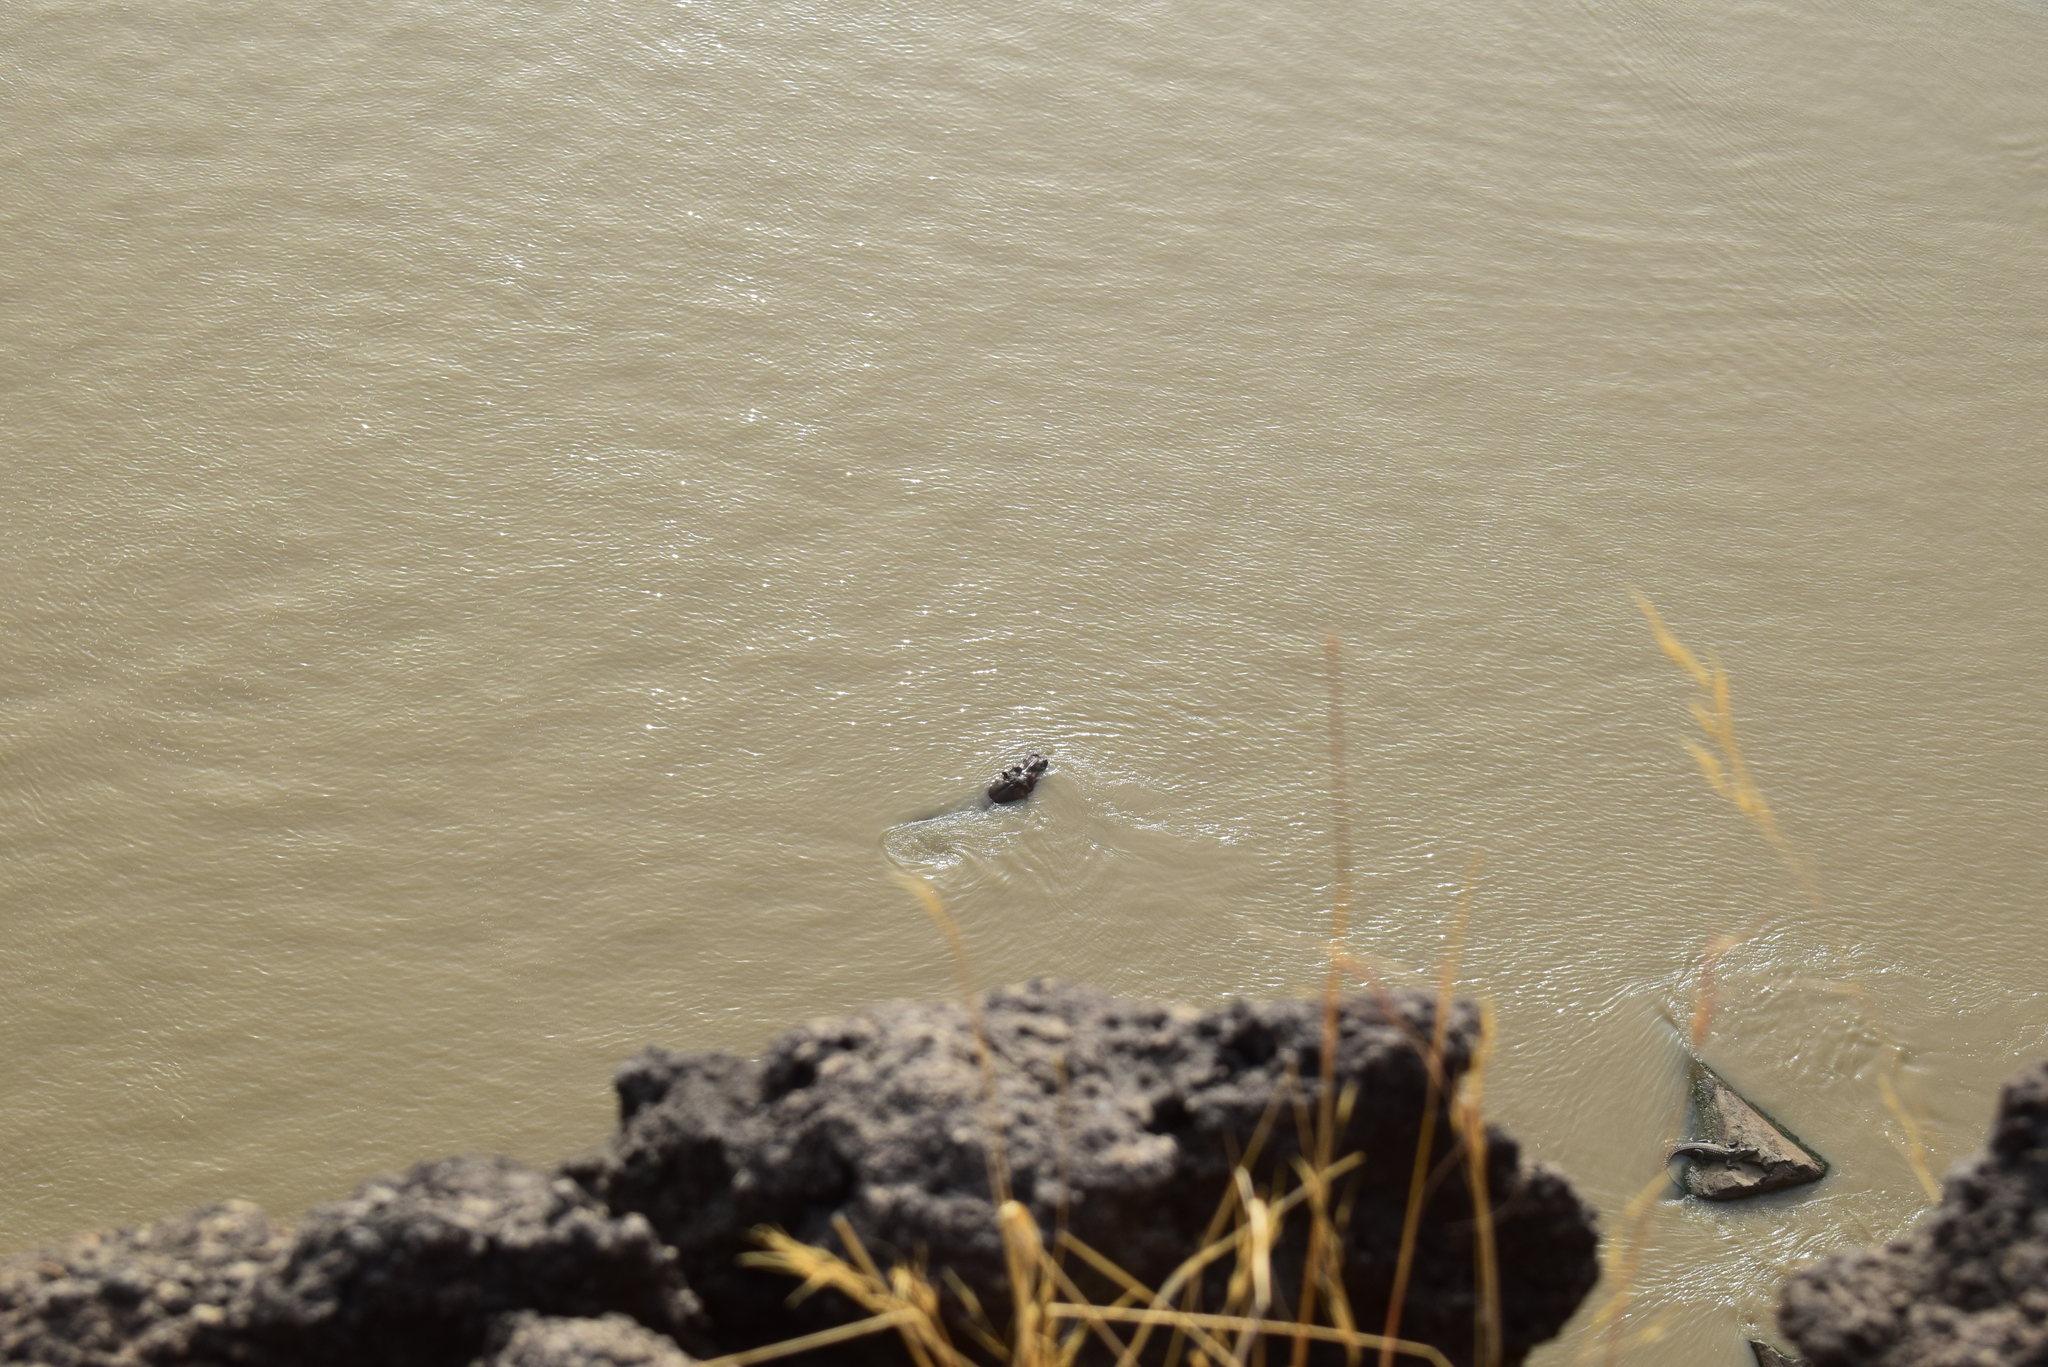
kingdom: Animalia
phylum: Chordata
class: Mammalia
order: Artiodactyla
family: Hippopotamidae
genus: Hippopotamus
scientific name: Hippopotamus amphibius
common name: Common hippopotamus
